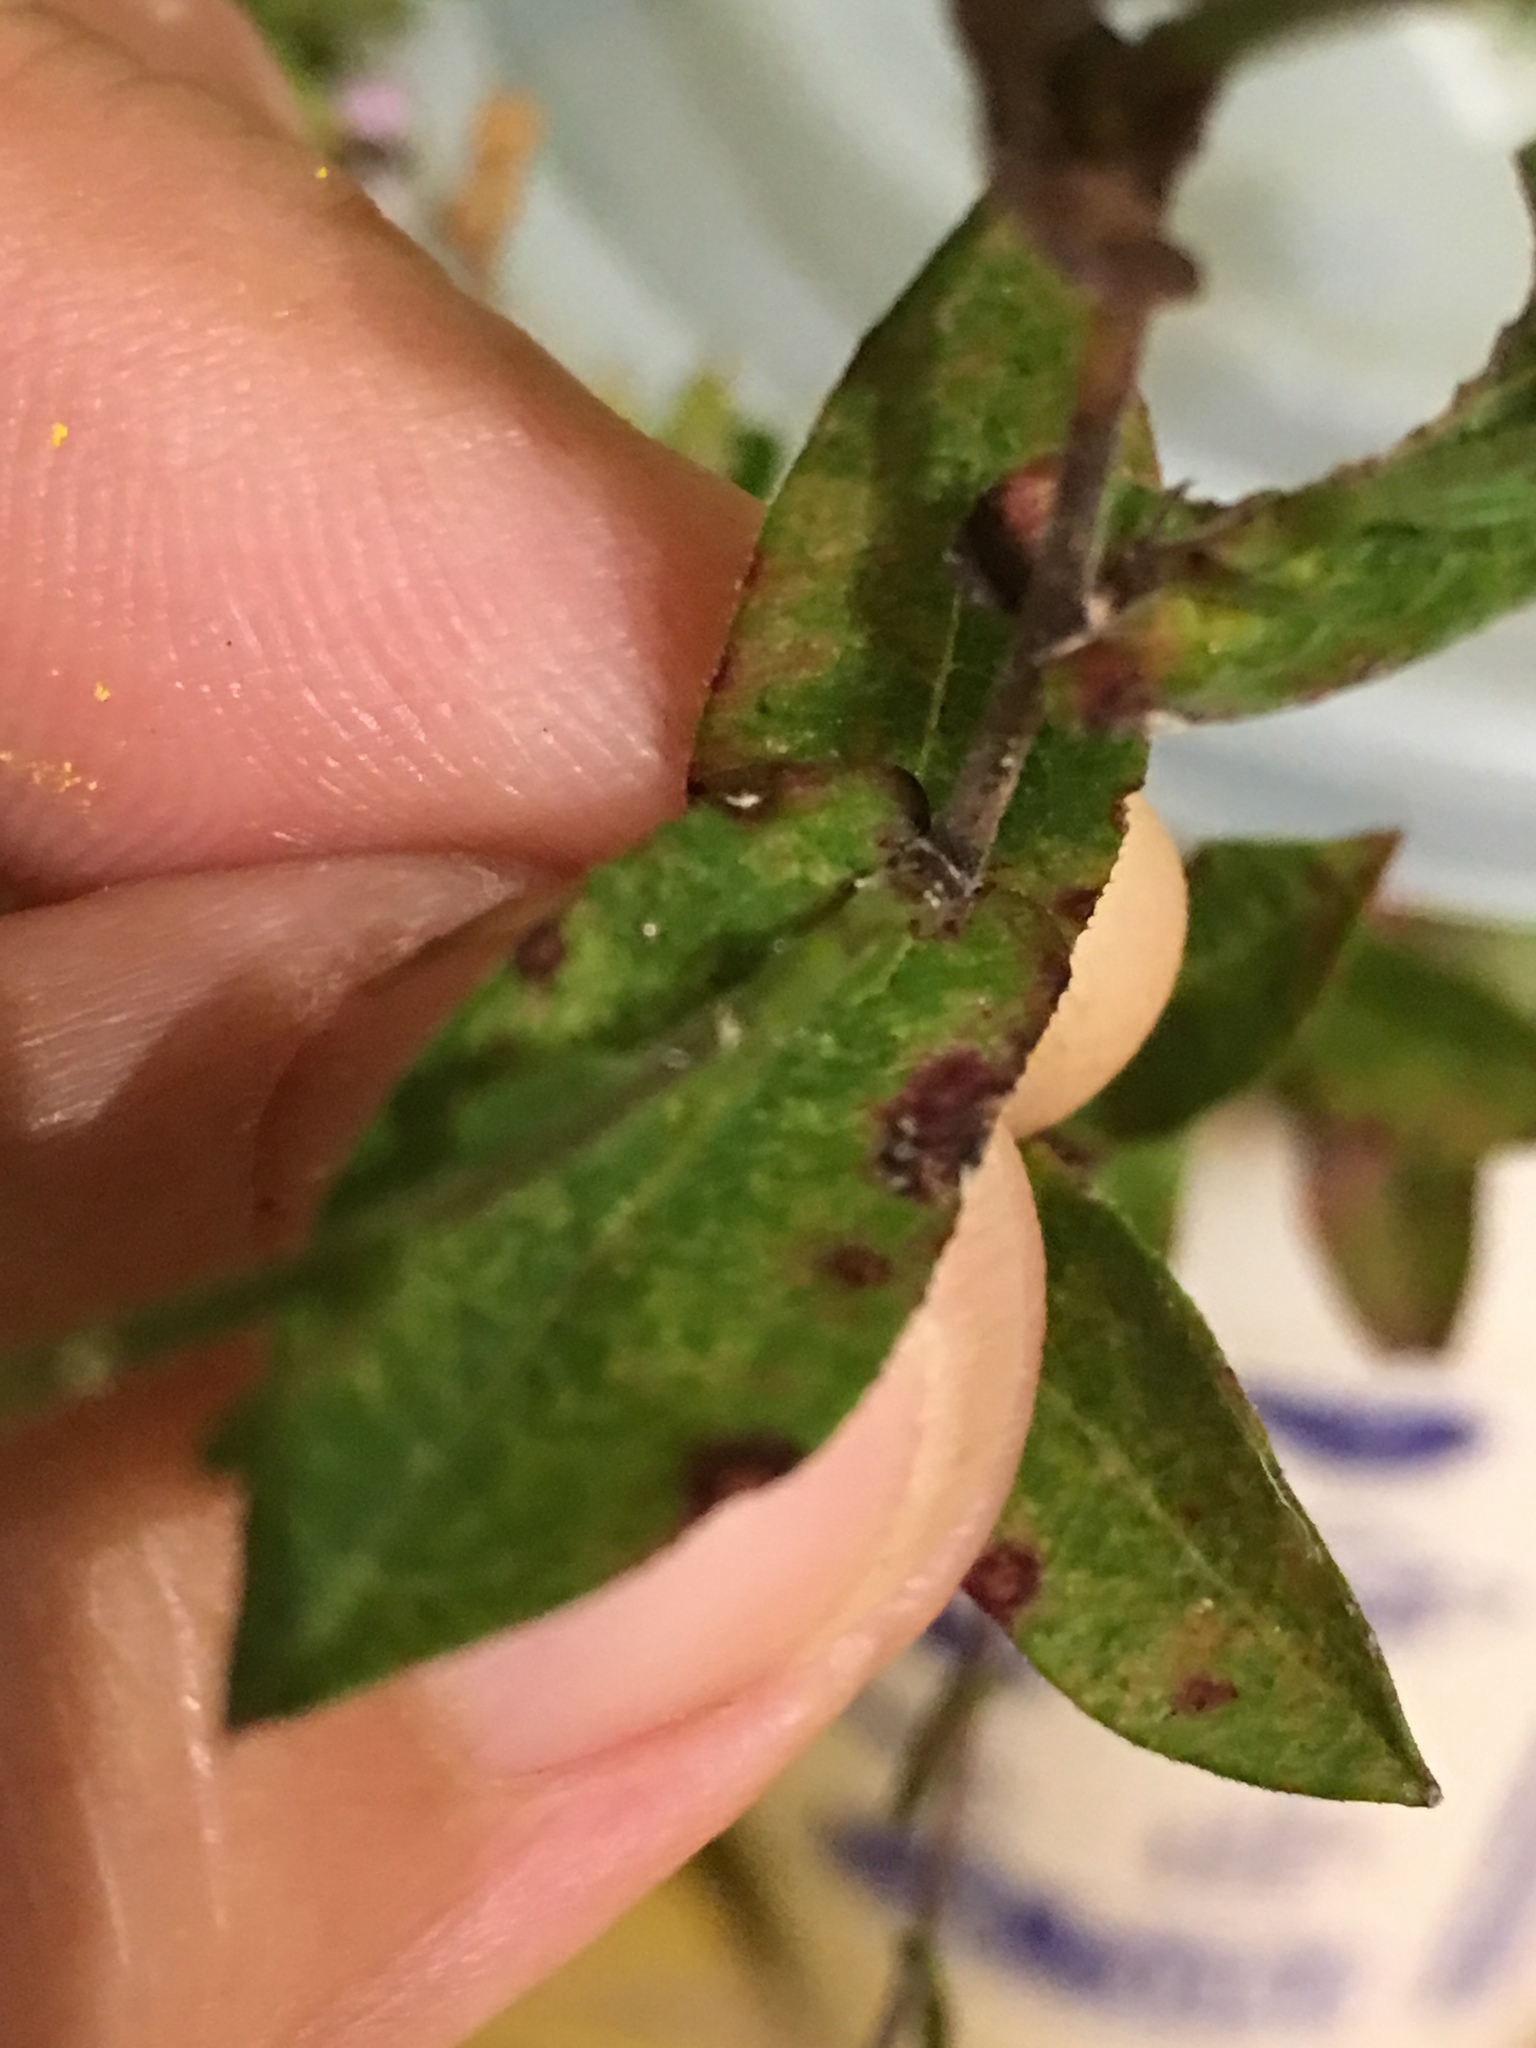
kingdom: Plantae
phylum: Tracheophyta
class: Magnoliopsida
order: Asterales
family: Asteraceae
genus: Symphyotrichum
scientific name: Symphyotrichum patens
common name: Late purple aster
